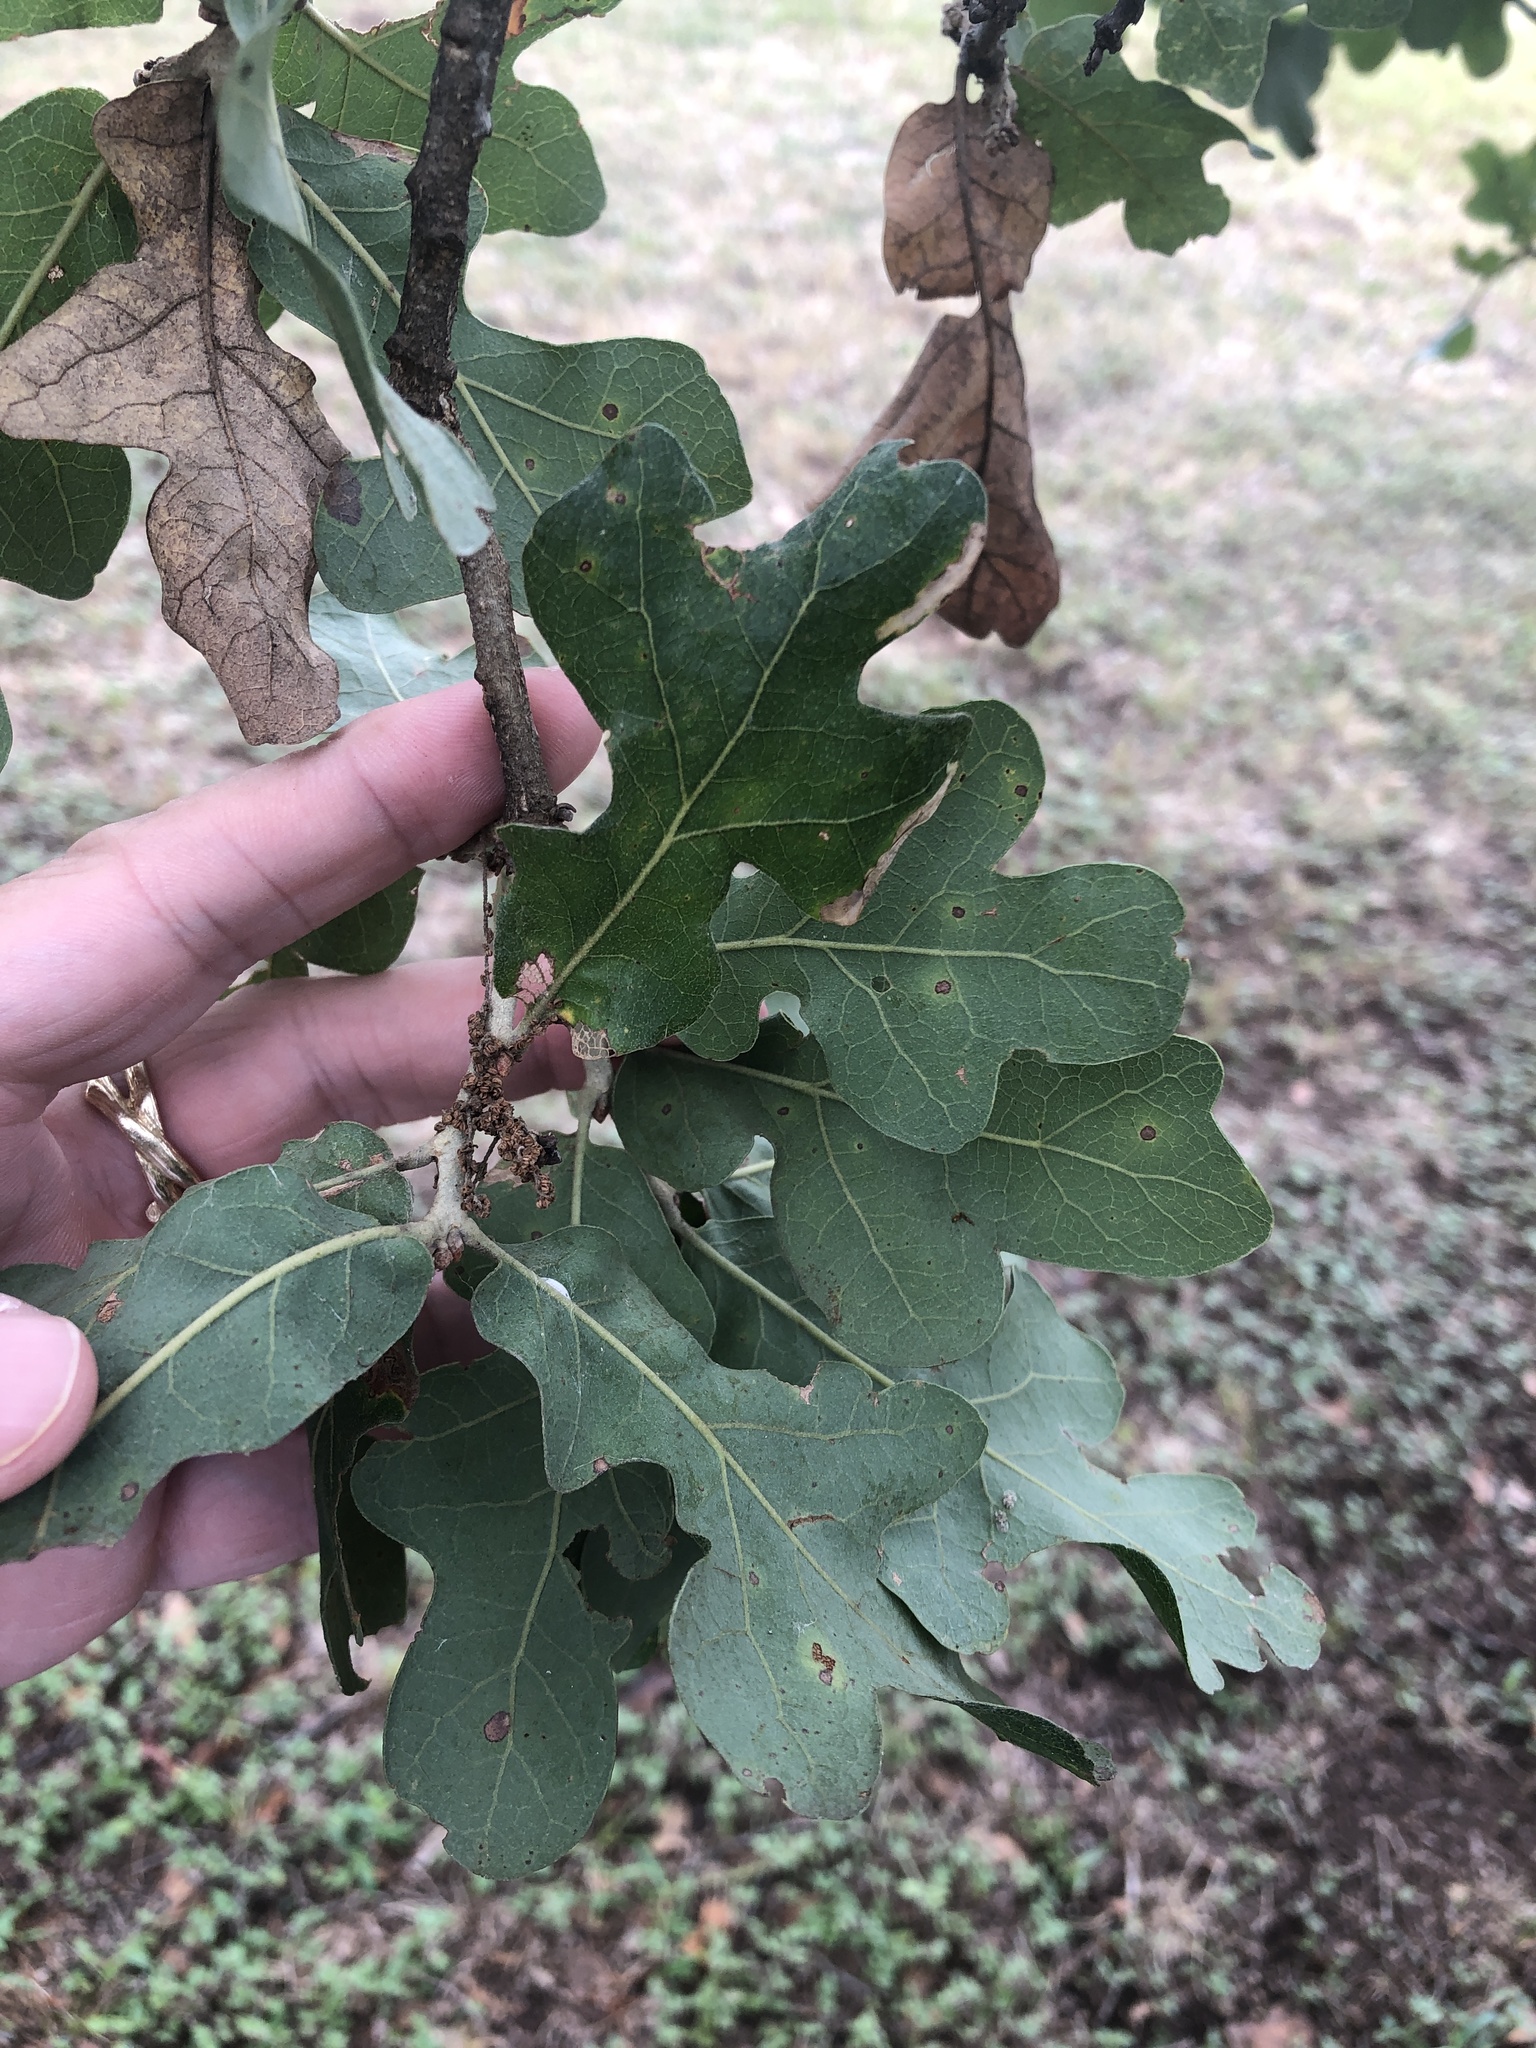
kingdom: Plantae
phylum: Tracheophyta
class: Magnoliopsida
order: Fagales
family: Fagaceae
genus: Quercus
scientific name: Quercus stellata
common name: Post oak
